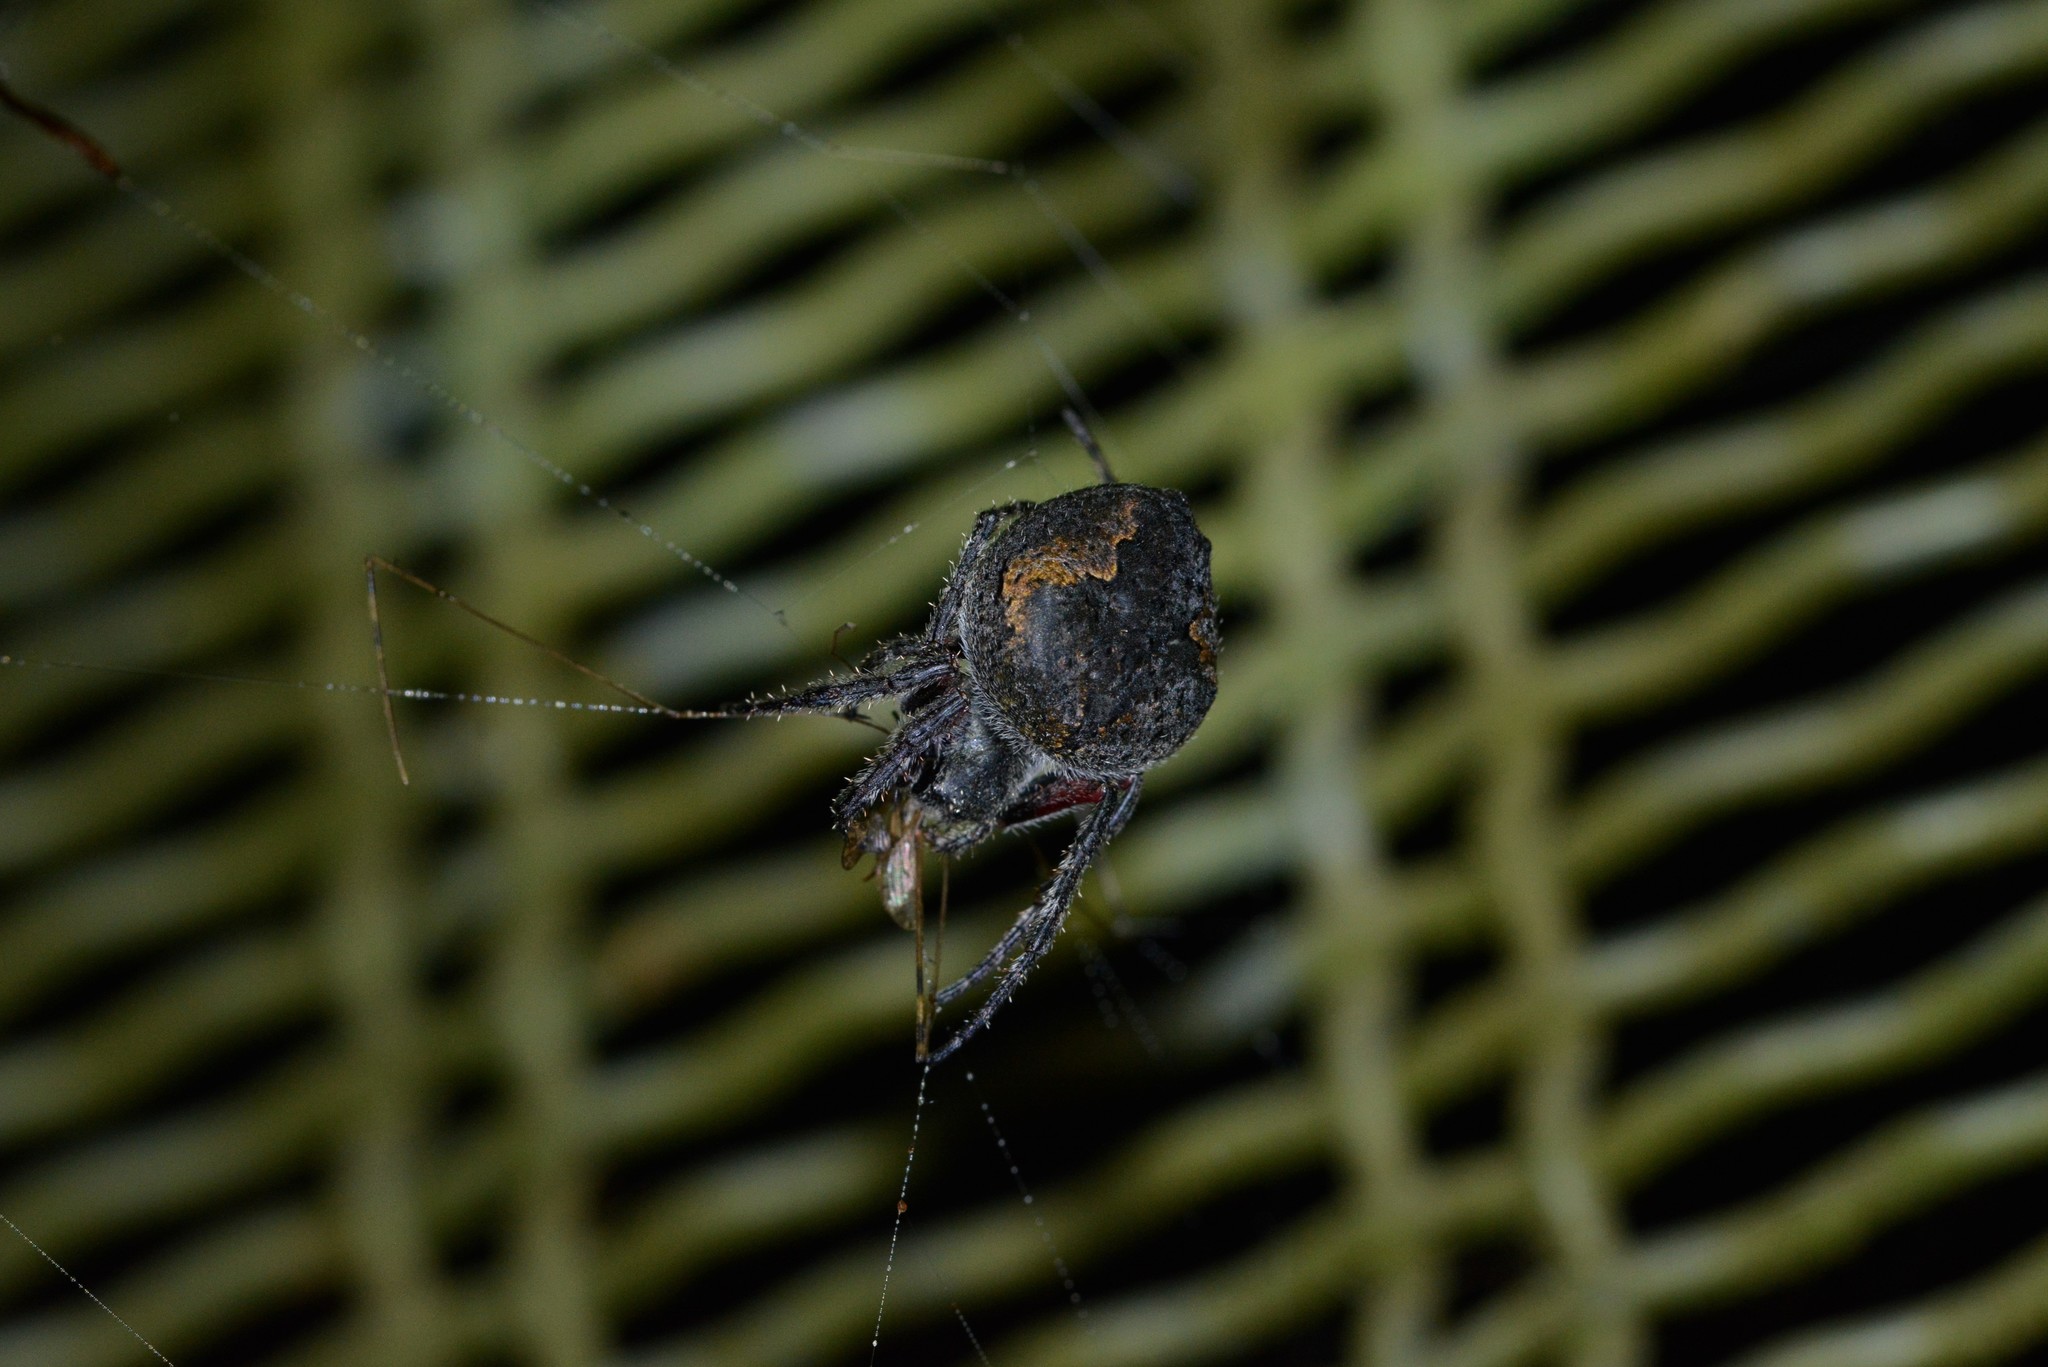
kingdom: Animalia
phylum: Arthropoda
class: Arachnida
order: Araneae
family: Araneidae
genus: Eriophora
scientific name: Eriophora pustulosa
